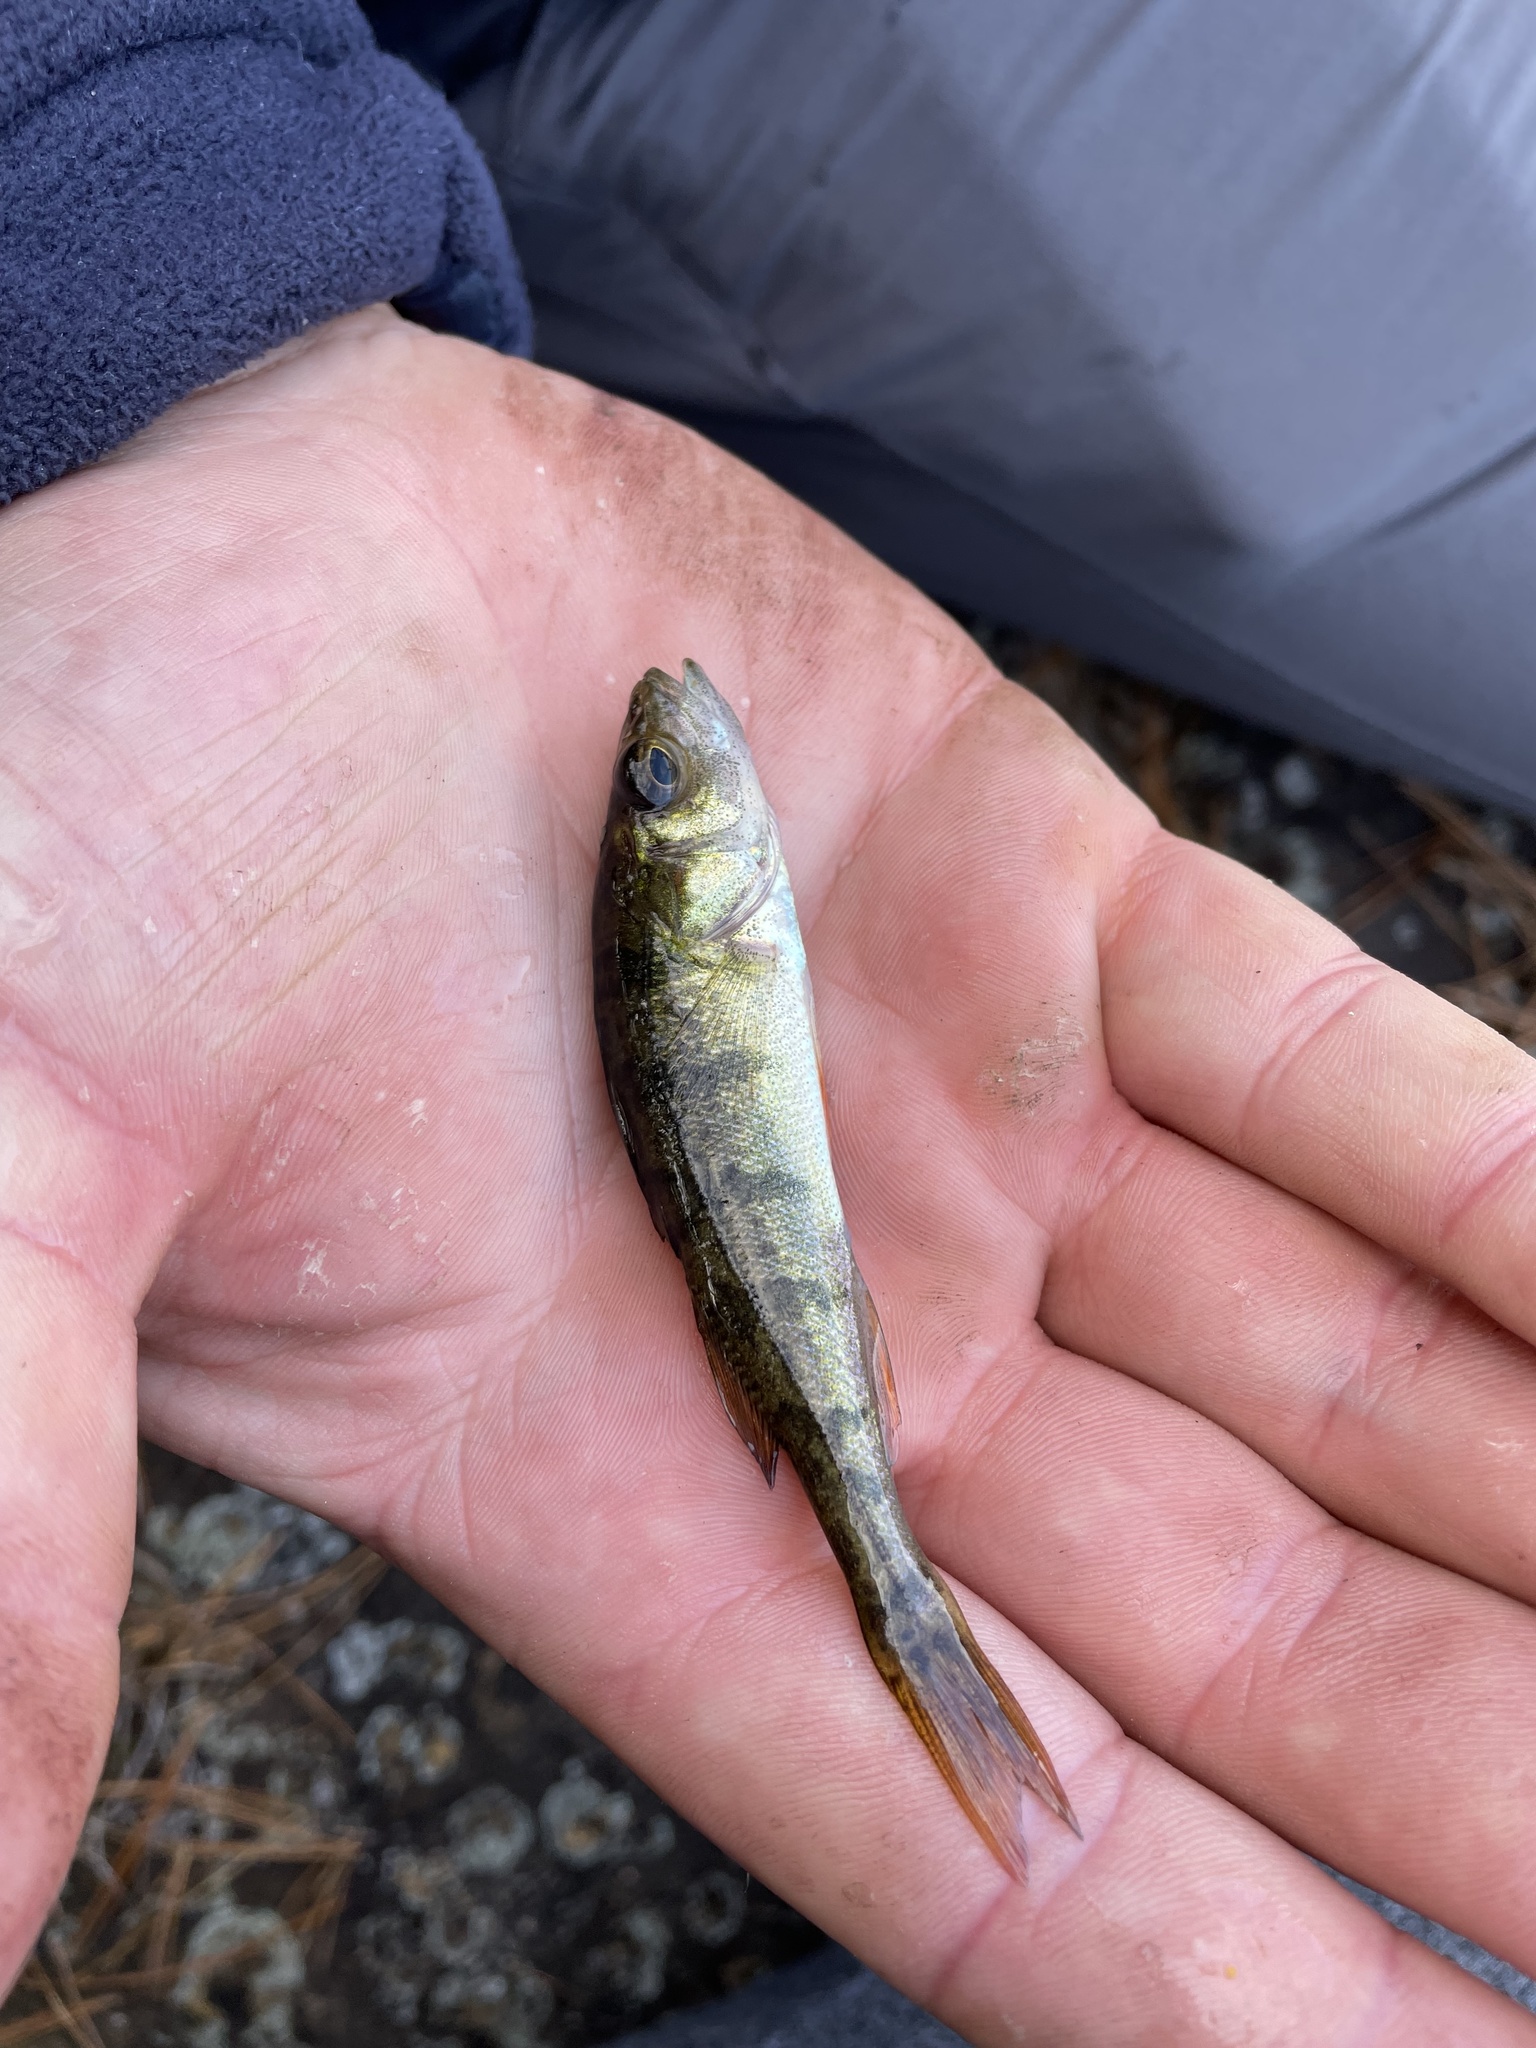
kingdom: Animalia
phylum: Chordata
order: Perciformes
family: Percidae
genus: Perca
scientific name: Perca flavescens
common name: Yellow perch
